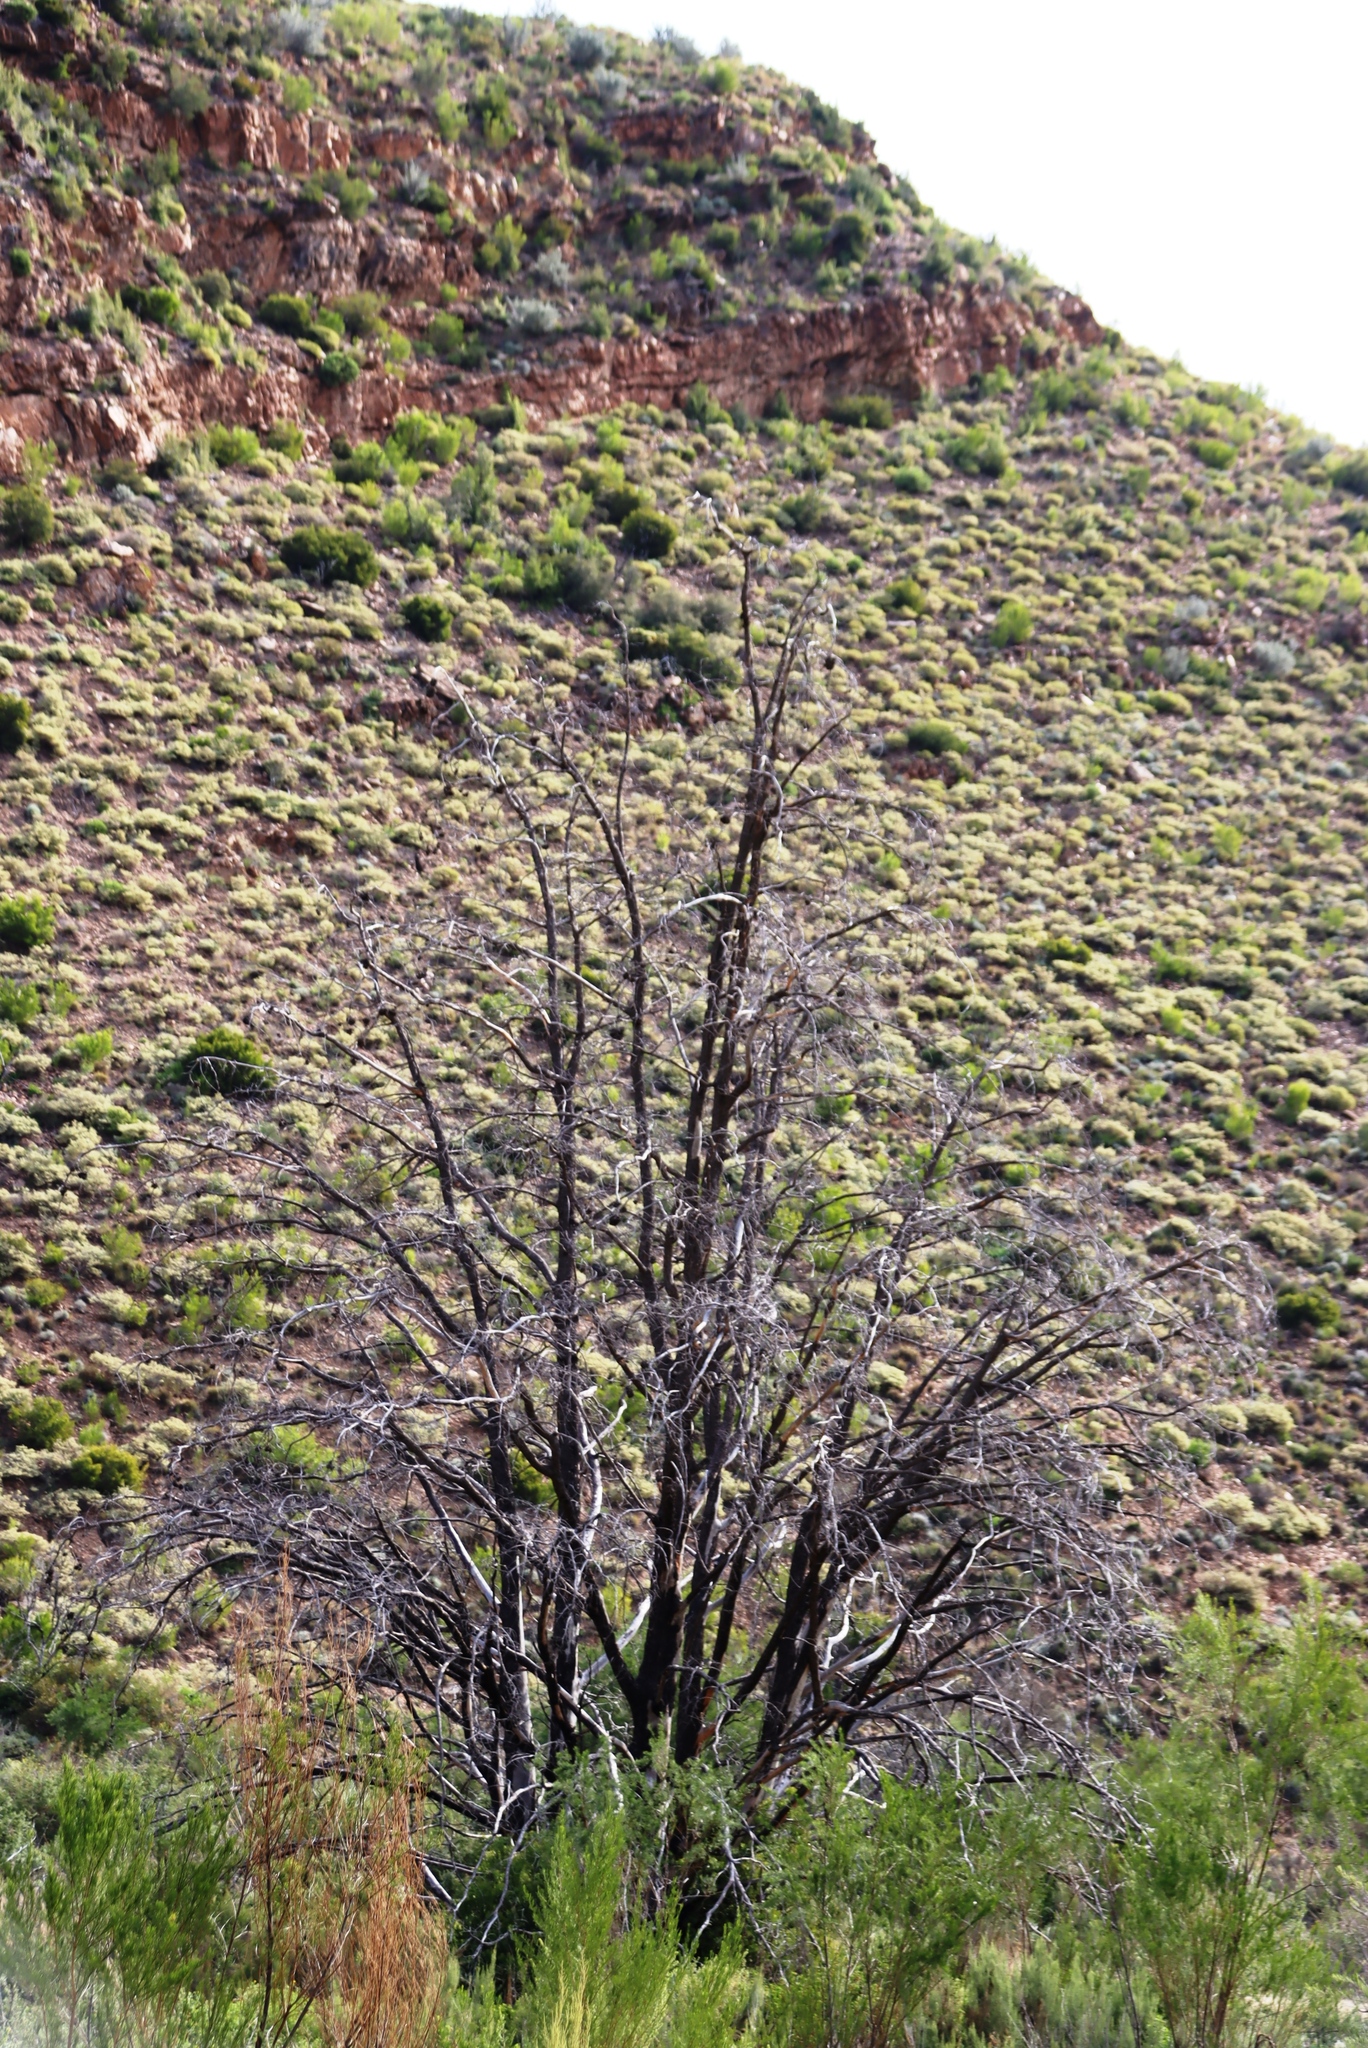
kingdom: Plantae
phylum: Tracheophyta
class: Pinopsida
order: Pinales
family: Cupressaceae
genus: Widdringtonia
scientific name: Widdringtonia schwarzii
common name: Baviaans cedar
